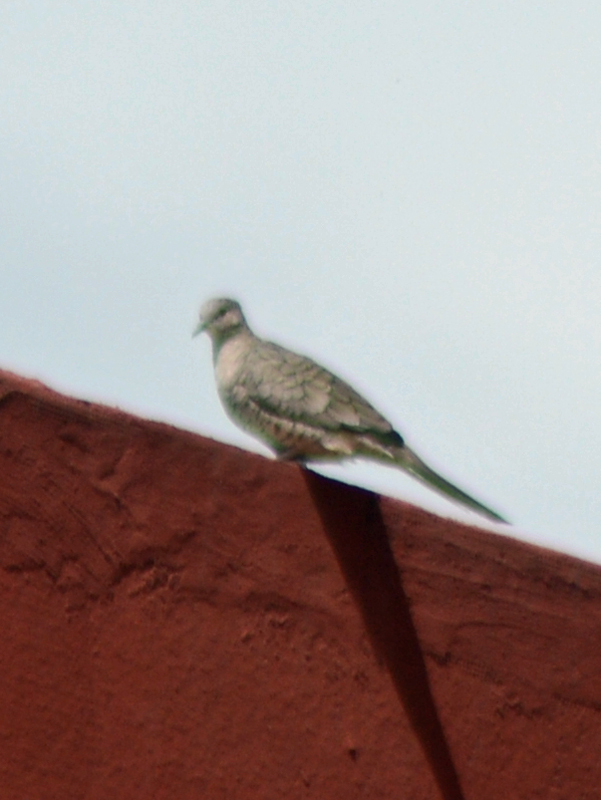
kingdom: Animalia
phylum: Chordata
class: Aves
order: Columbiformes
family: Columbidae
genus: Columbina
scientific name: Columbina inca
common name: Inca dove
